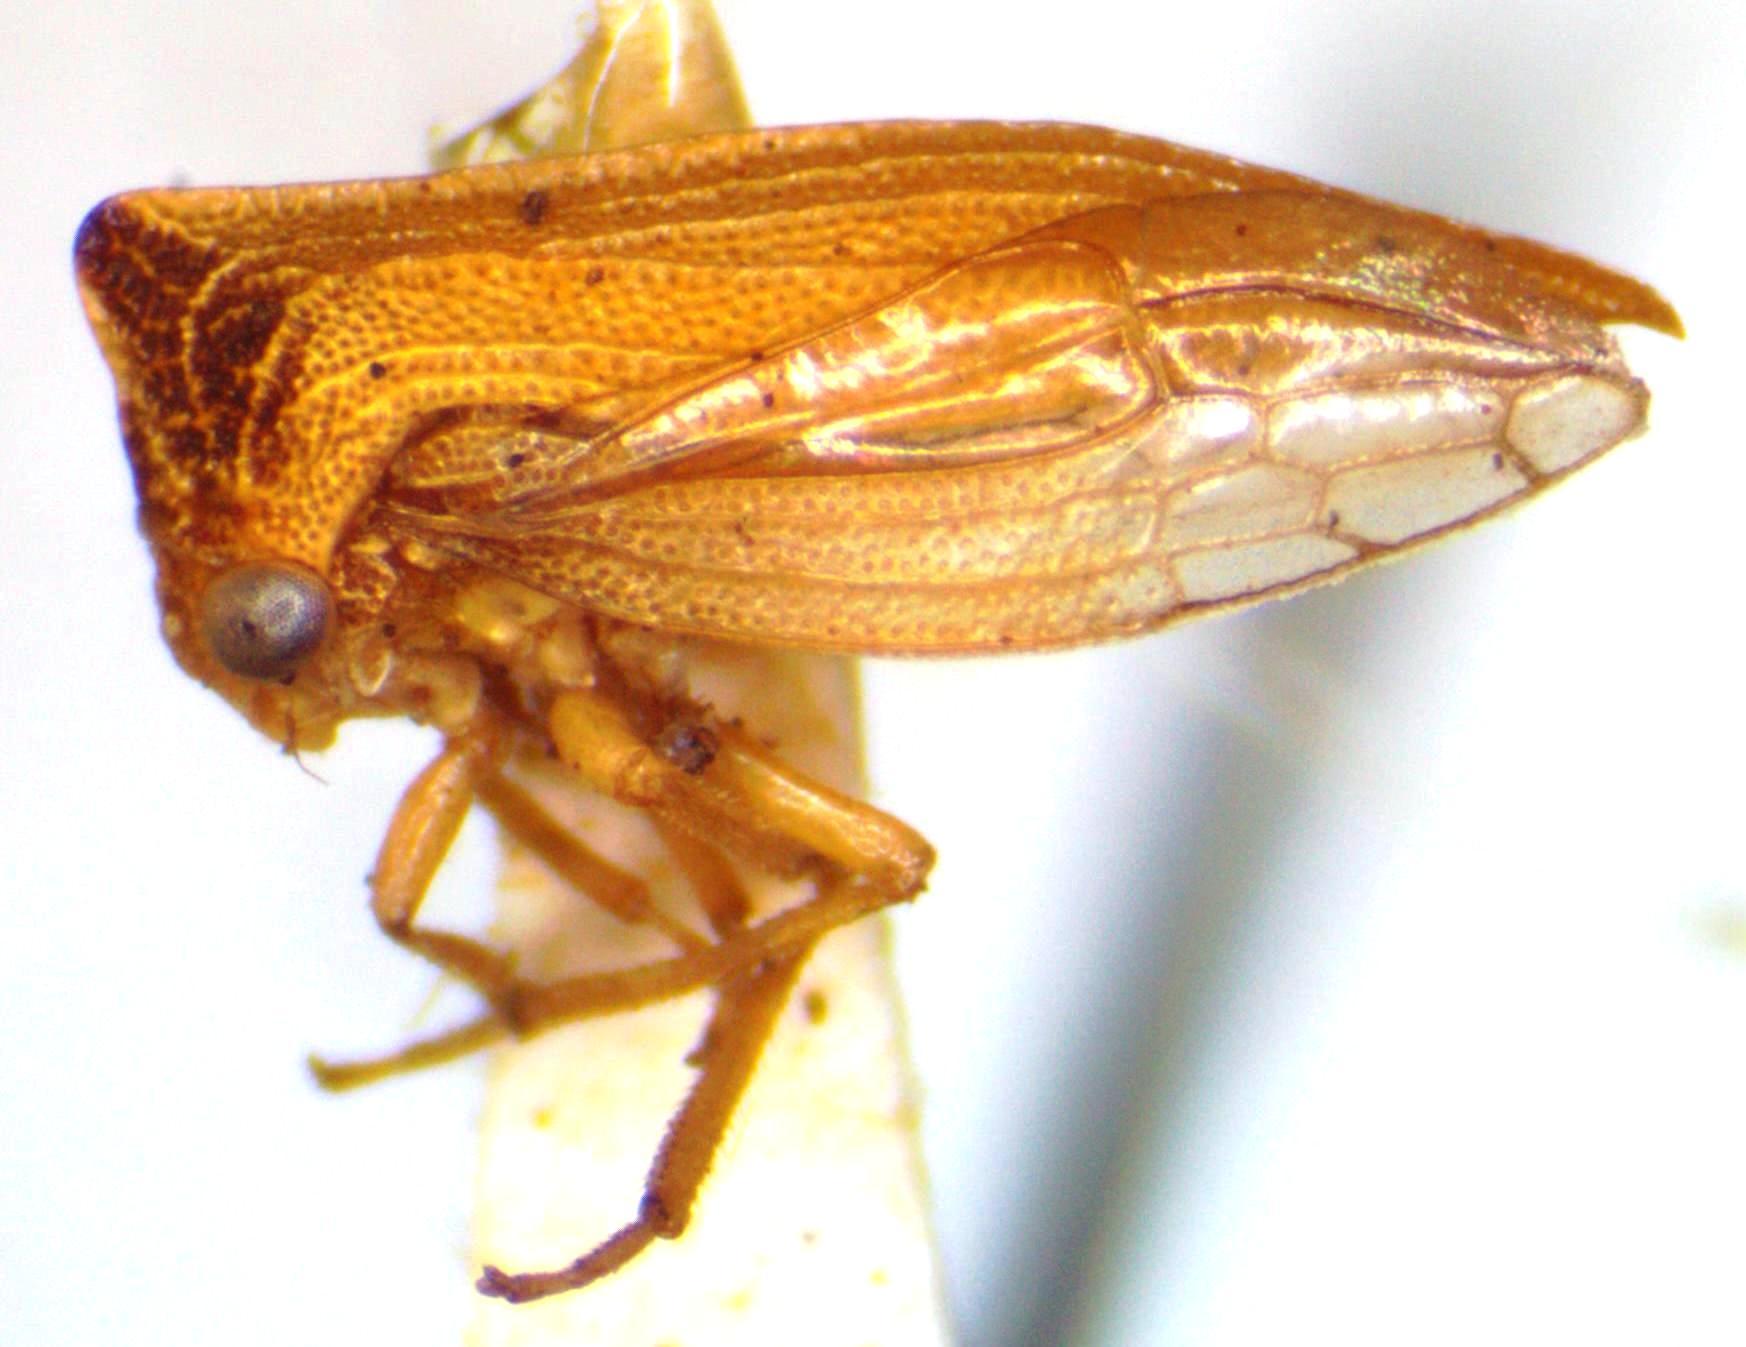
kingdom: Animalia
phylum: Arthropoda
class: Insecta
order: Hemiptera
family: Membracidae
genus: Metheisa
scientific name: Metheisa lucillodes
